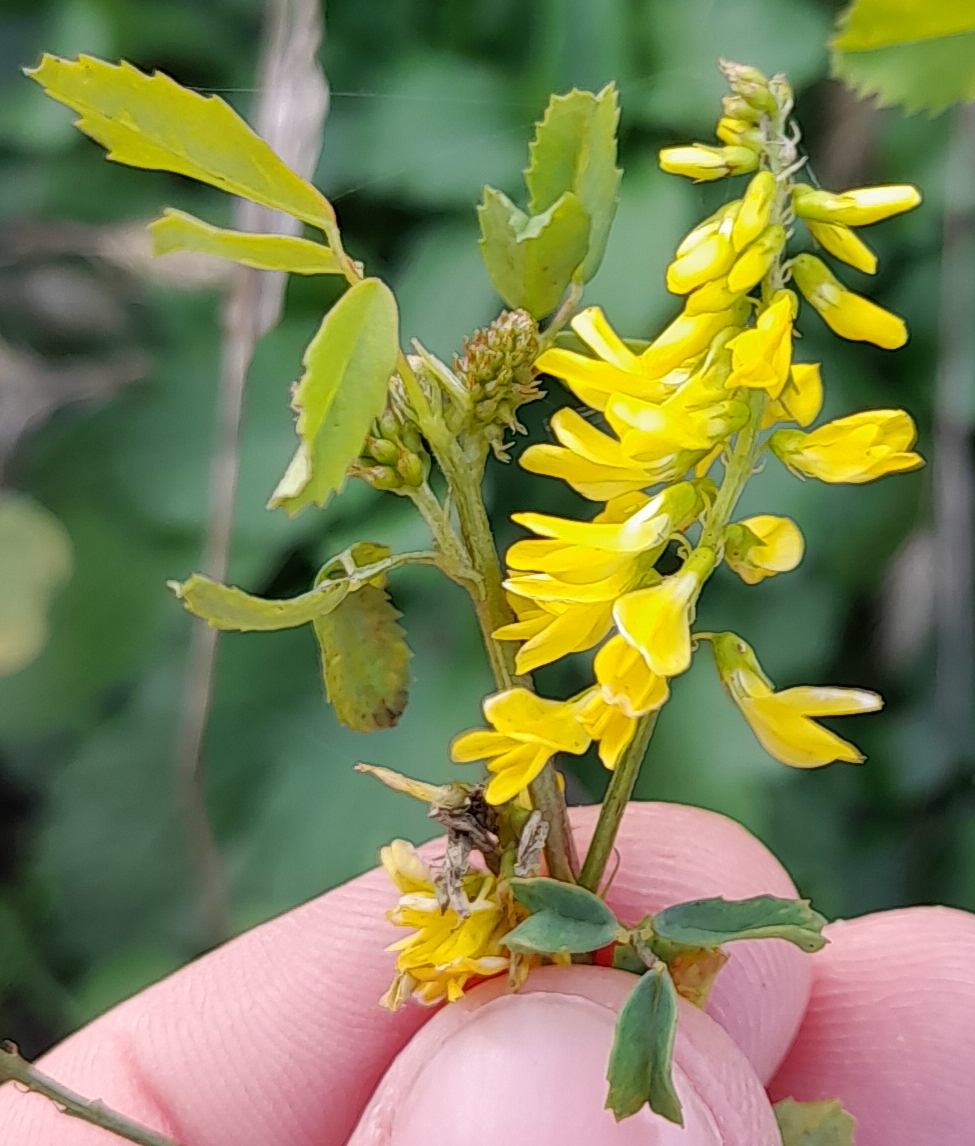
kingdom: Plantae
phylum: Tracheophyta
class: Magnoliopsida
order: Fabales
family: Fabaceae
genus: Melilotus
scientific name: Melilotus officinalis
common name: Sweetclover
